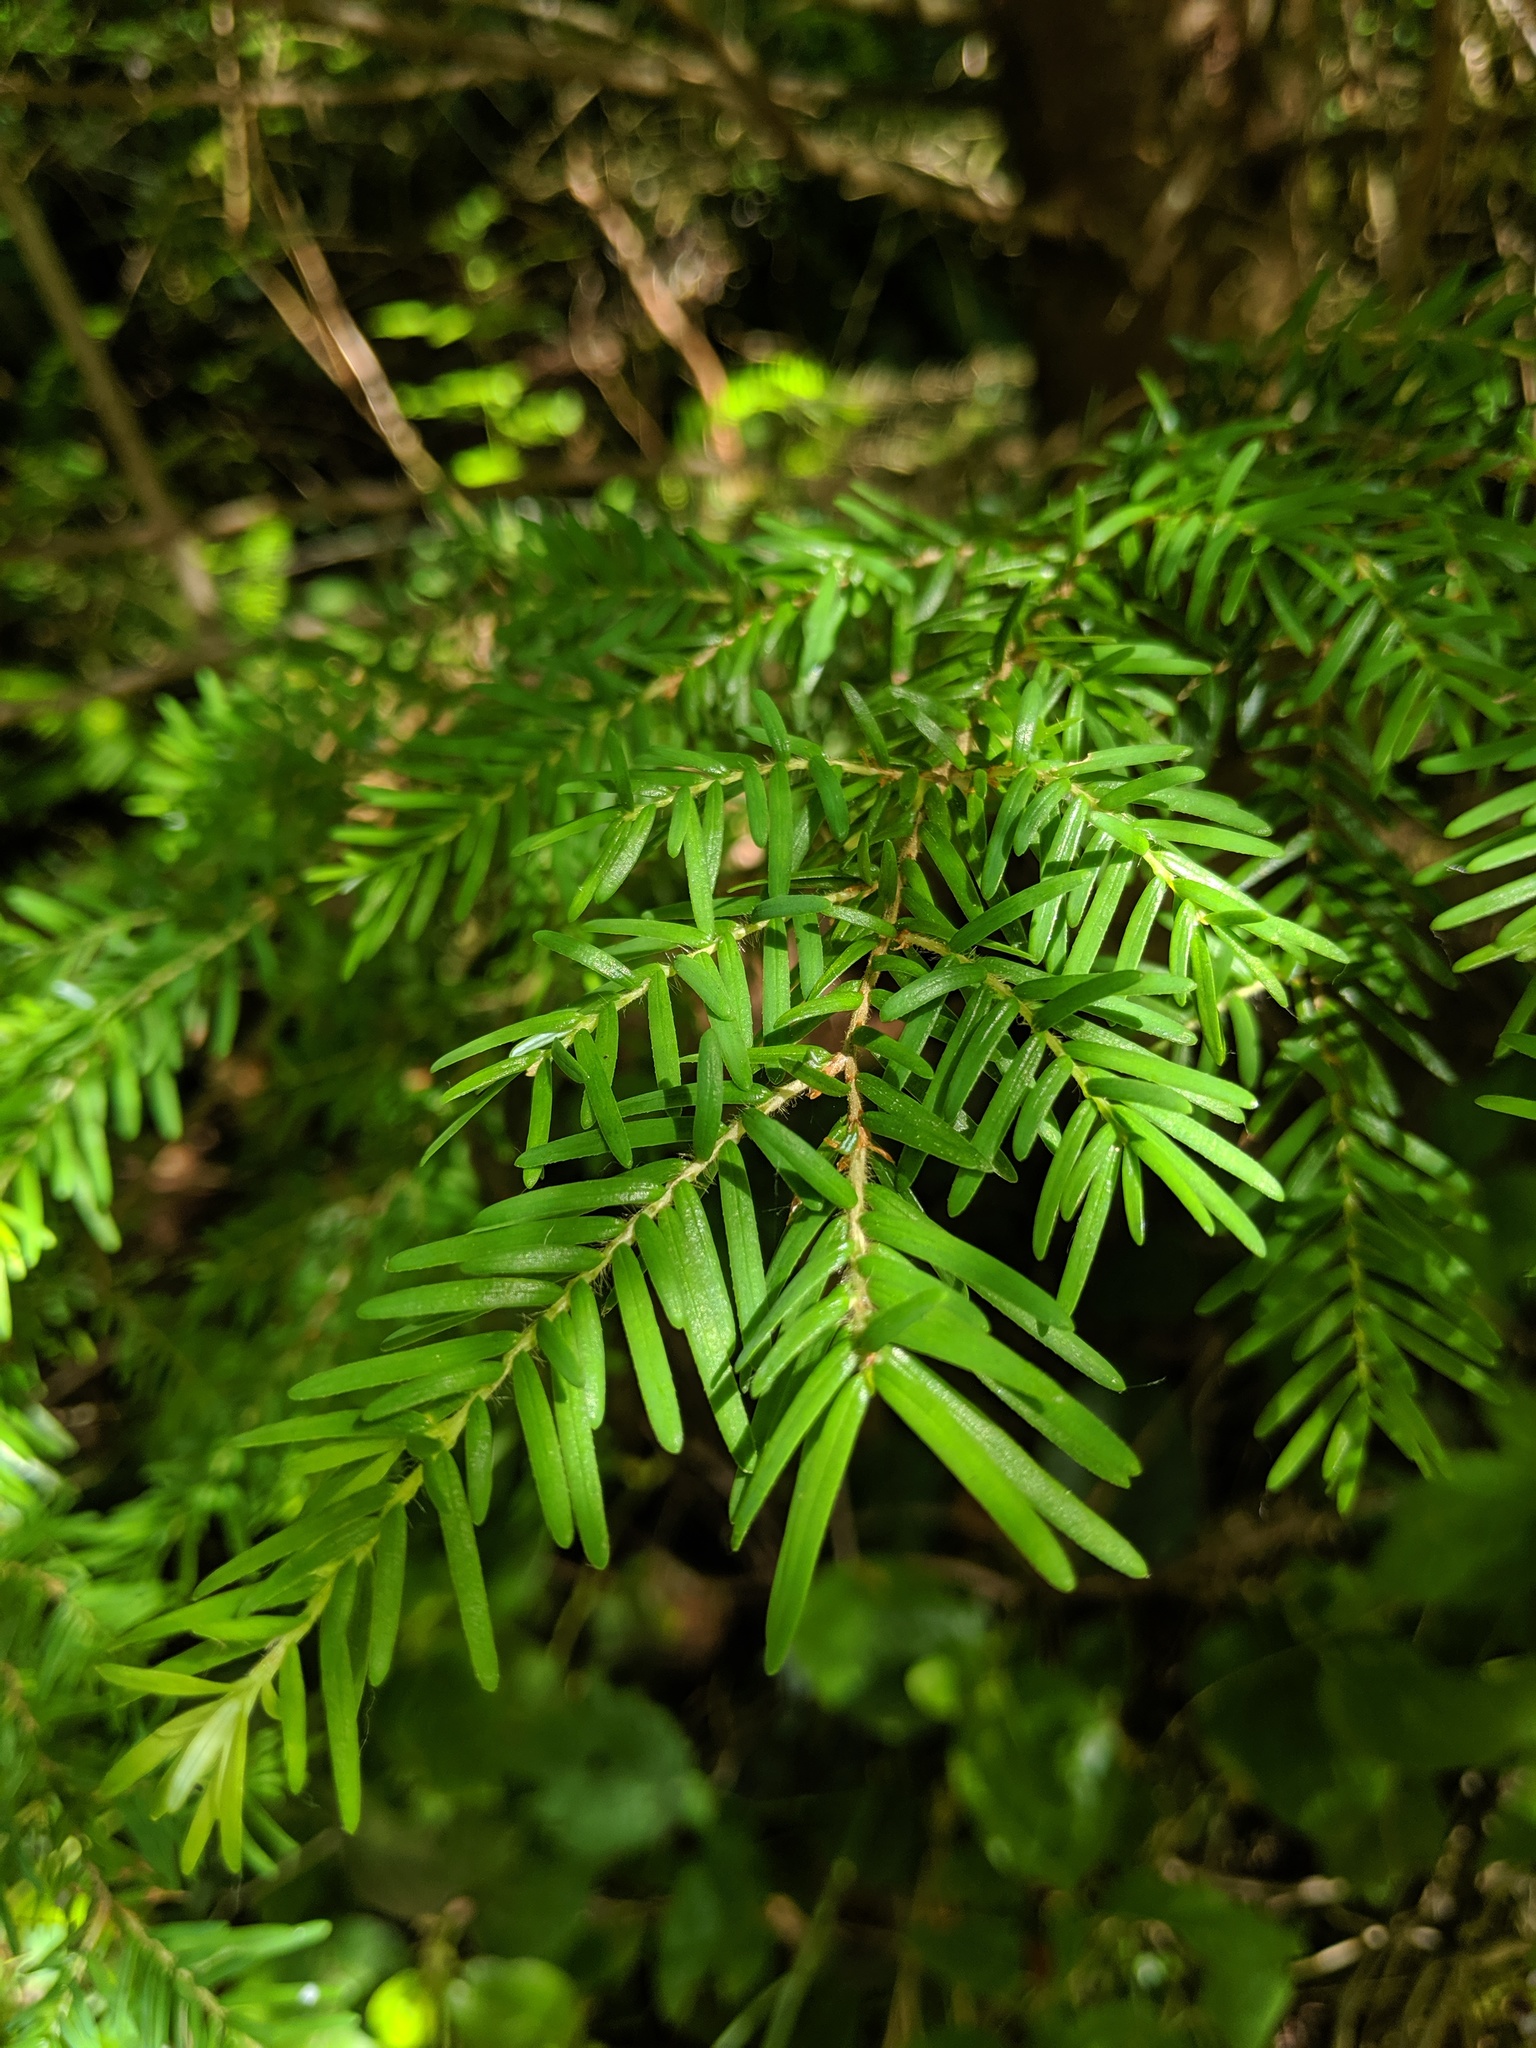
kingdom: Plantae
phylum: Tracheophyta
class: Pinopsida
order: Pinales
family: Pinaceae
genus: Tsuga
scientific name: Tsuga heterophylla
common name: Western hemlock
